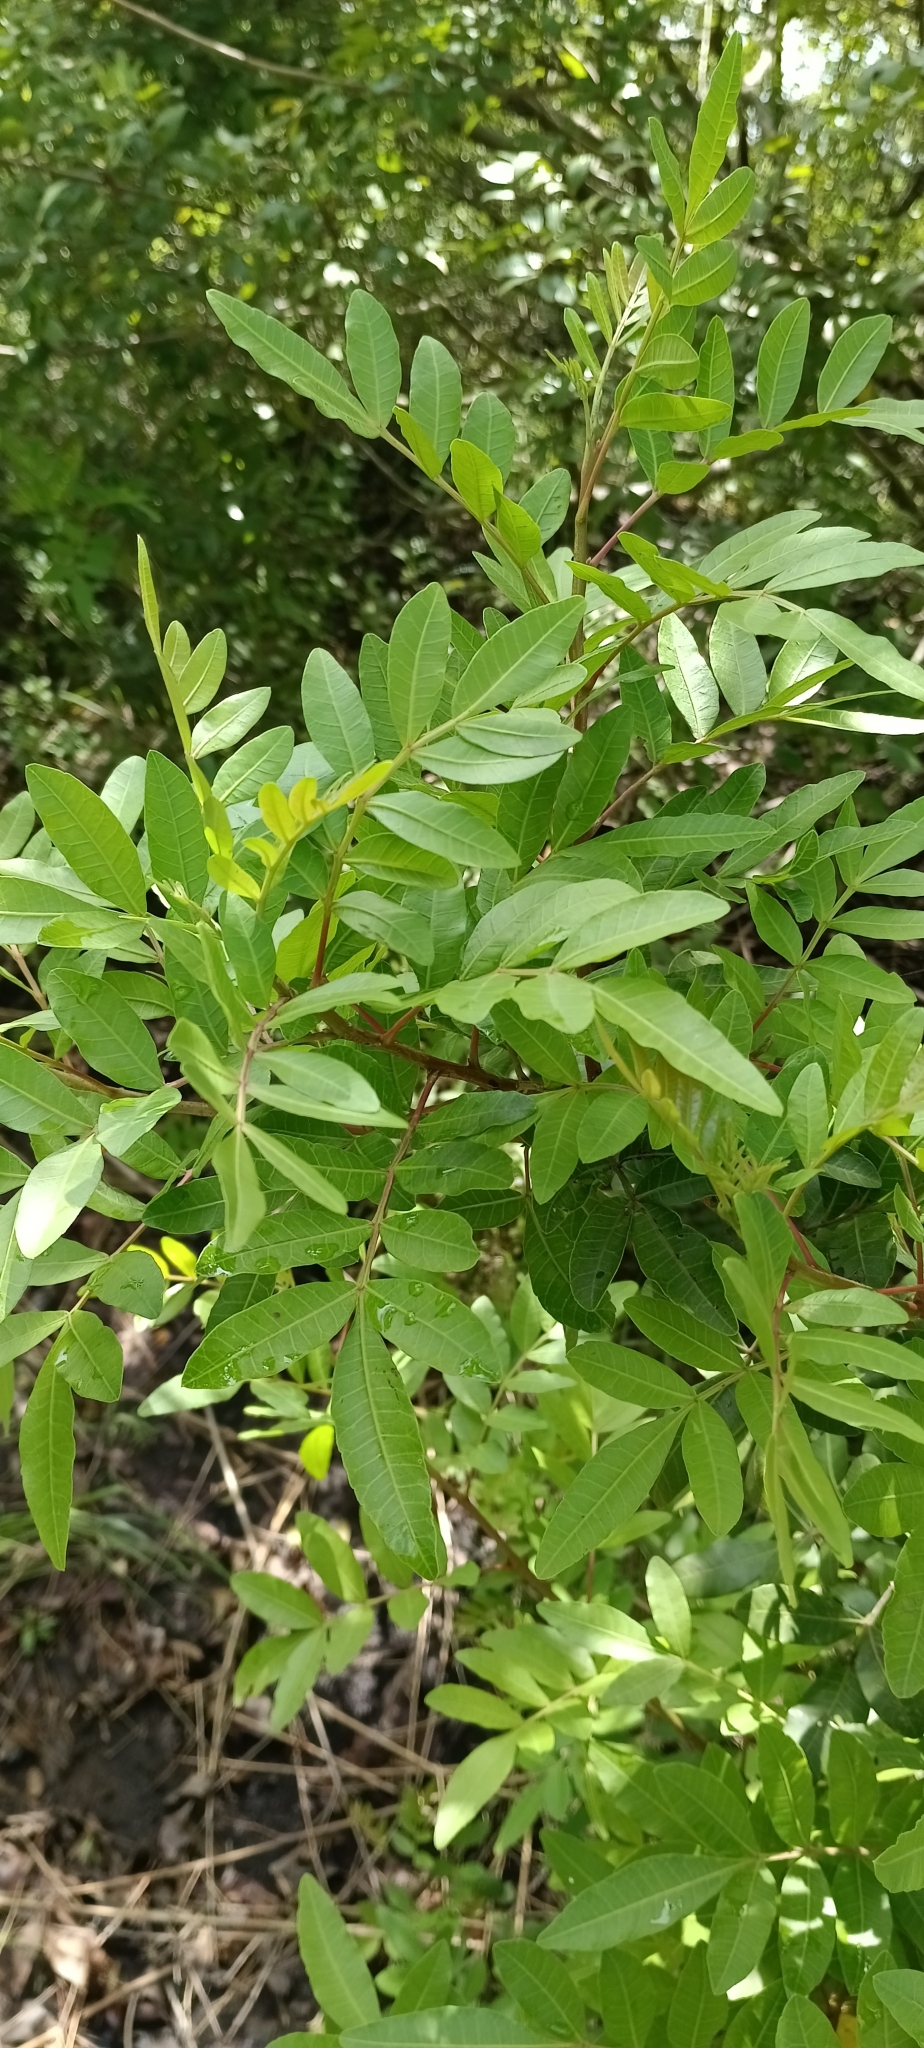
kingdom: Plantae
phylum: Tracheophyta
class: Magnoliopsida
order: Sapindales
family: Anacardiaceae
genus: Schinus
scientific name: Schinus terebinthifolia
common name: Brazilian peppertree
